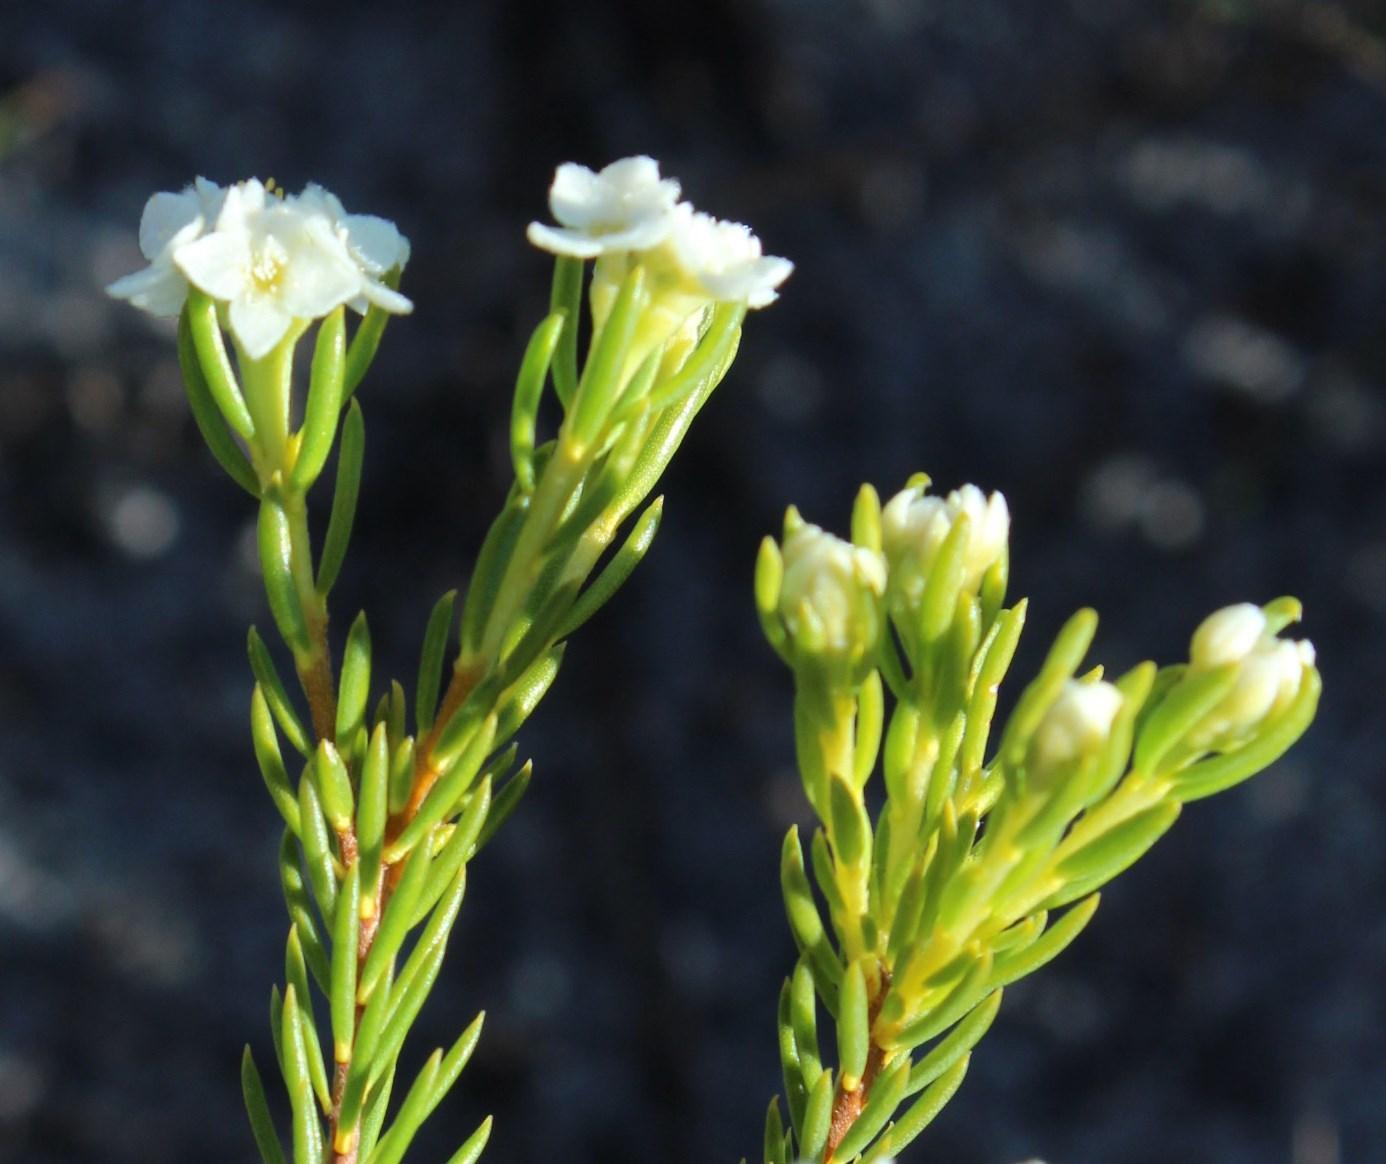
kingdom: Plantae
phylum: Tracheophyta
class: Magnoliopsida
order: Malvales
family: Thymelaeaceae
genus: Lachnaea
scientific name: Lachnaea densiflora
